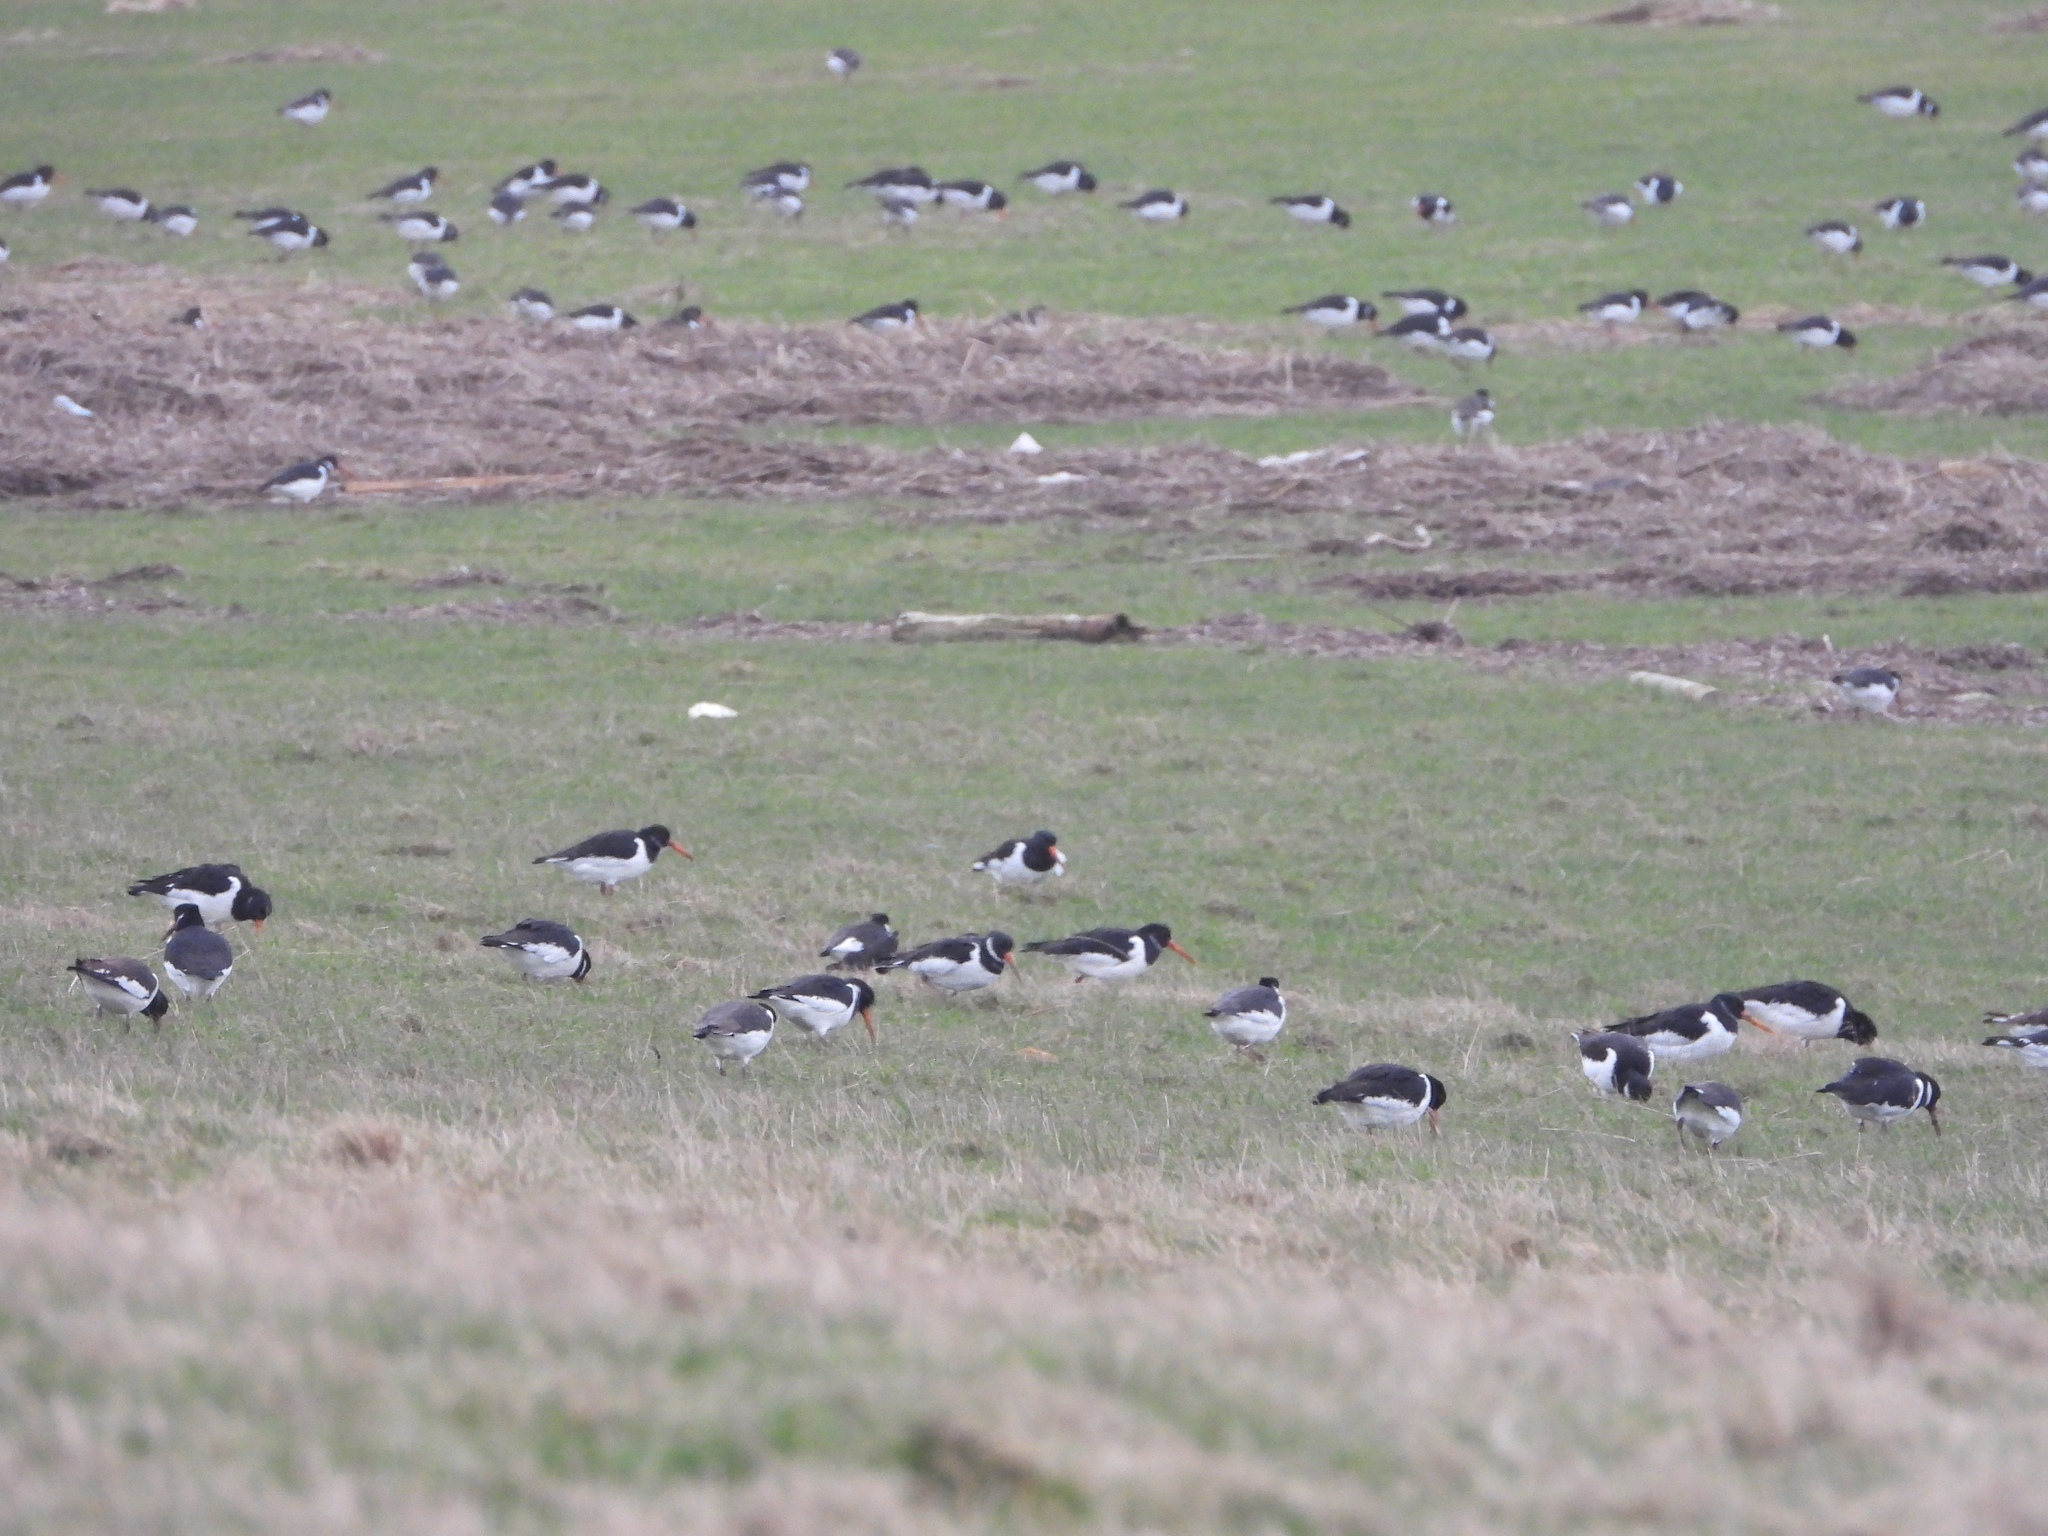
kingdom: Animalia
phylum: Chordata
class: Aves
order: Charadriiformes
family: Haematopodidae
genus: Haematopus
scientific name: Haematopus ostralegus
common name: Eurasian oystercatcher
